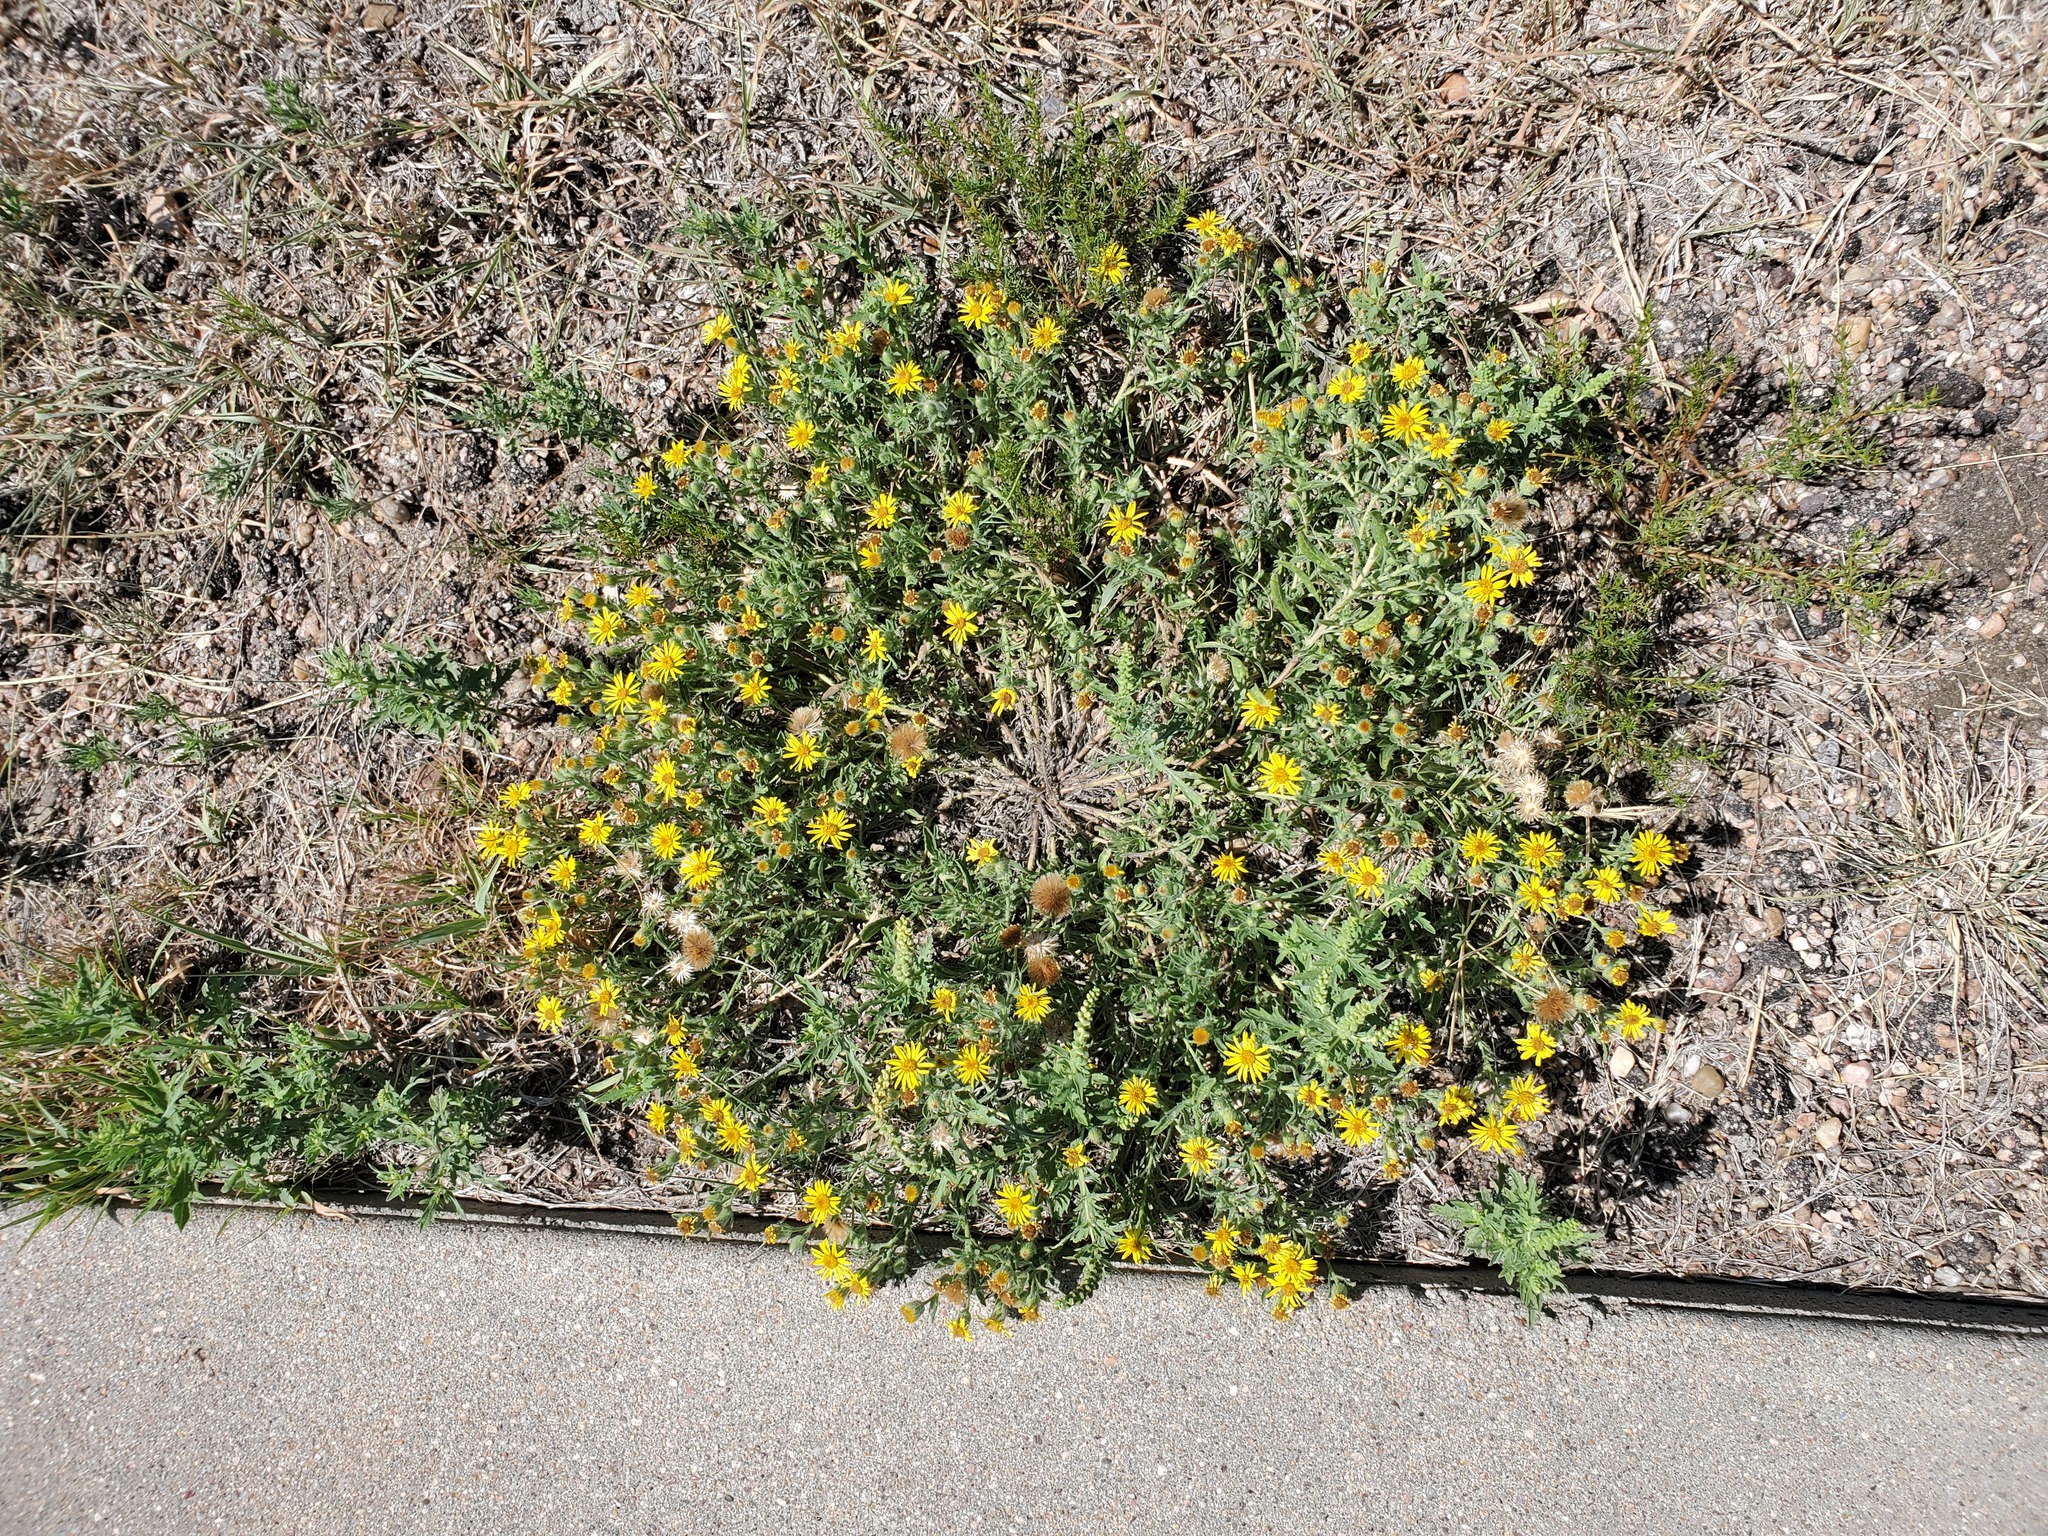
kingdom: Plantae
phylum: Tracheophyta
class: Magnoliopsida
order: Asterales
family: Asteraceae
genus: Heterotheca
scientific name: Heterotheca villosa
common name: Hairy false goldenaster
